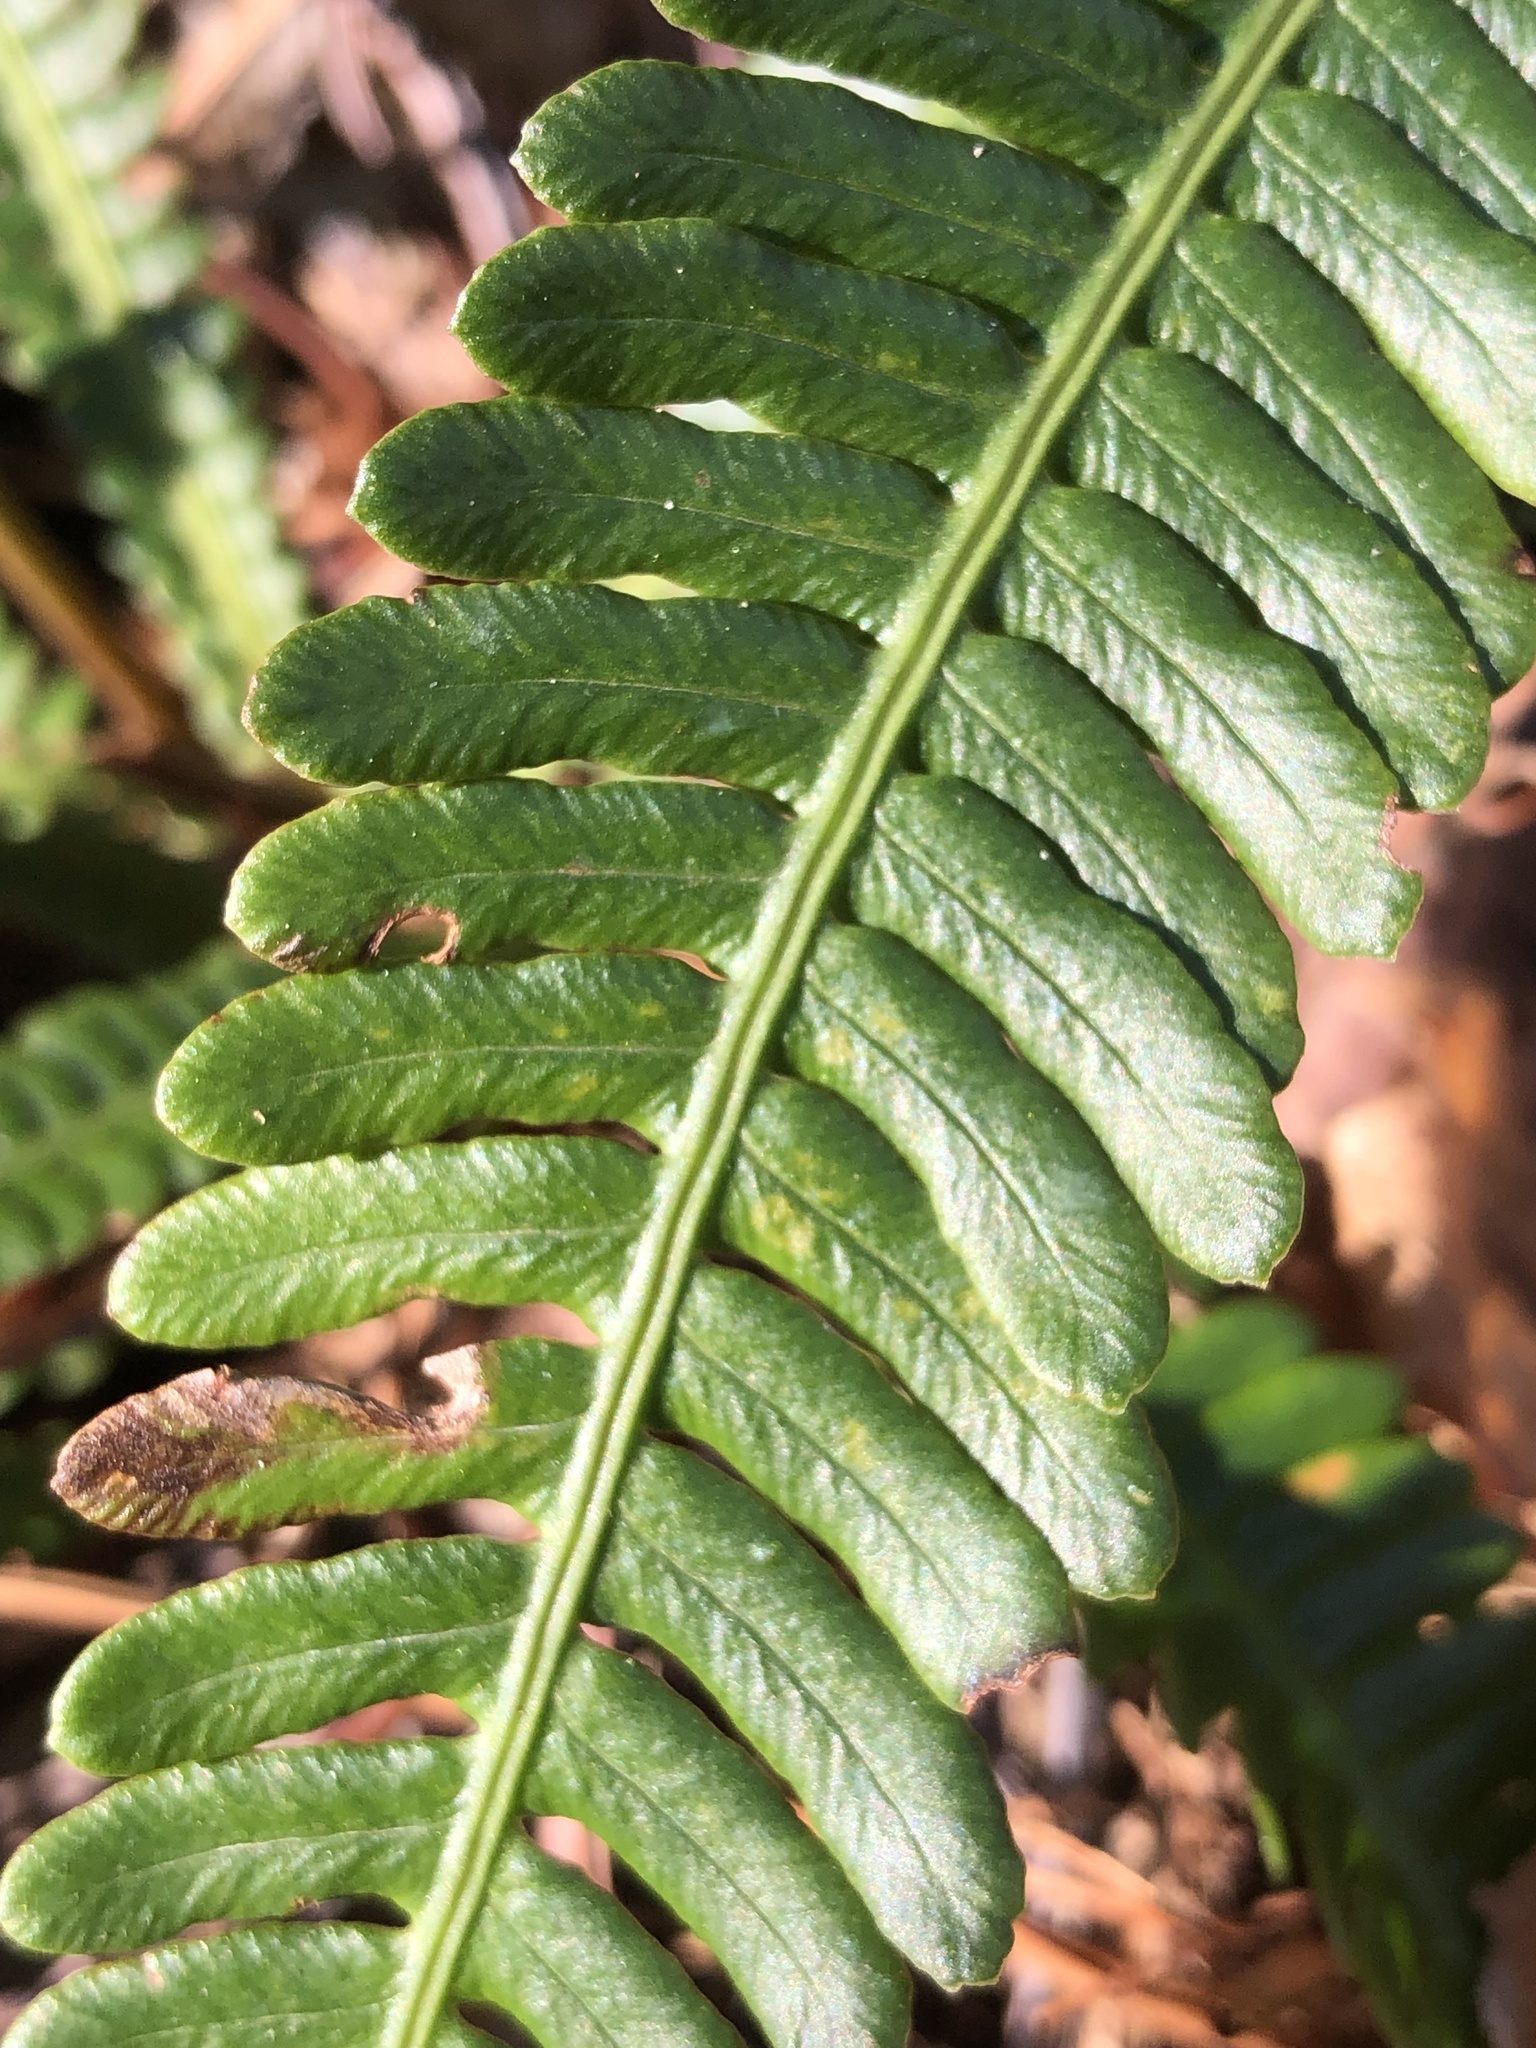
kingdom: Plantae
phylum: Tracheophyta
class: Polypodiopsida
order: Polypodiales
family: Blechnaceae
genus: Struthiopteris
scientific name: Struthiopteris spicant
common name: Deer fern
